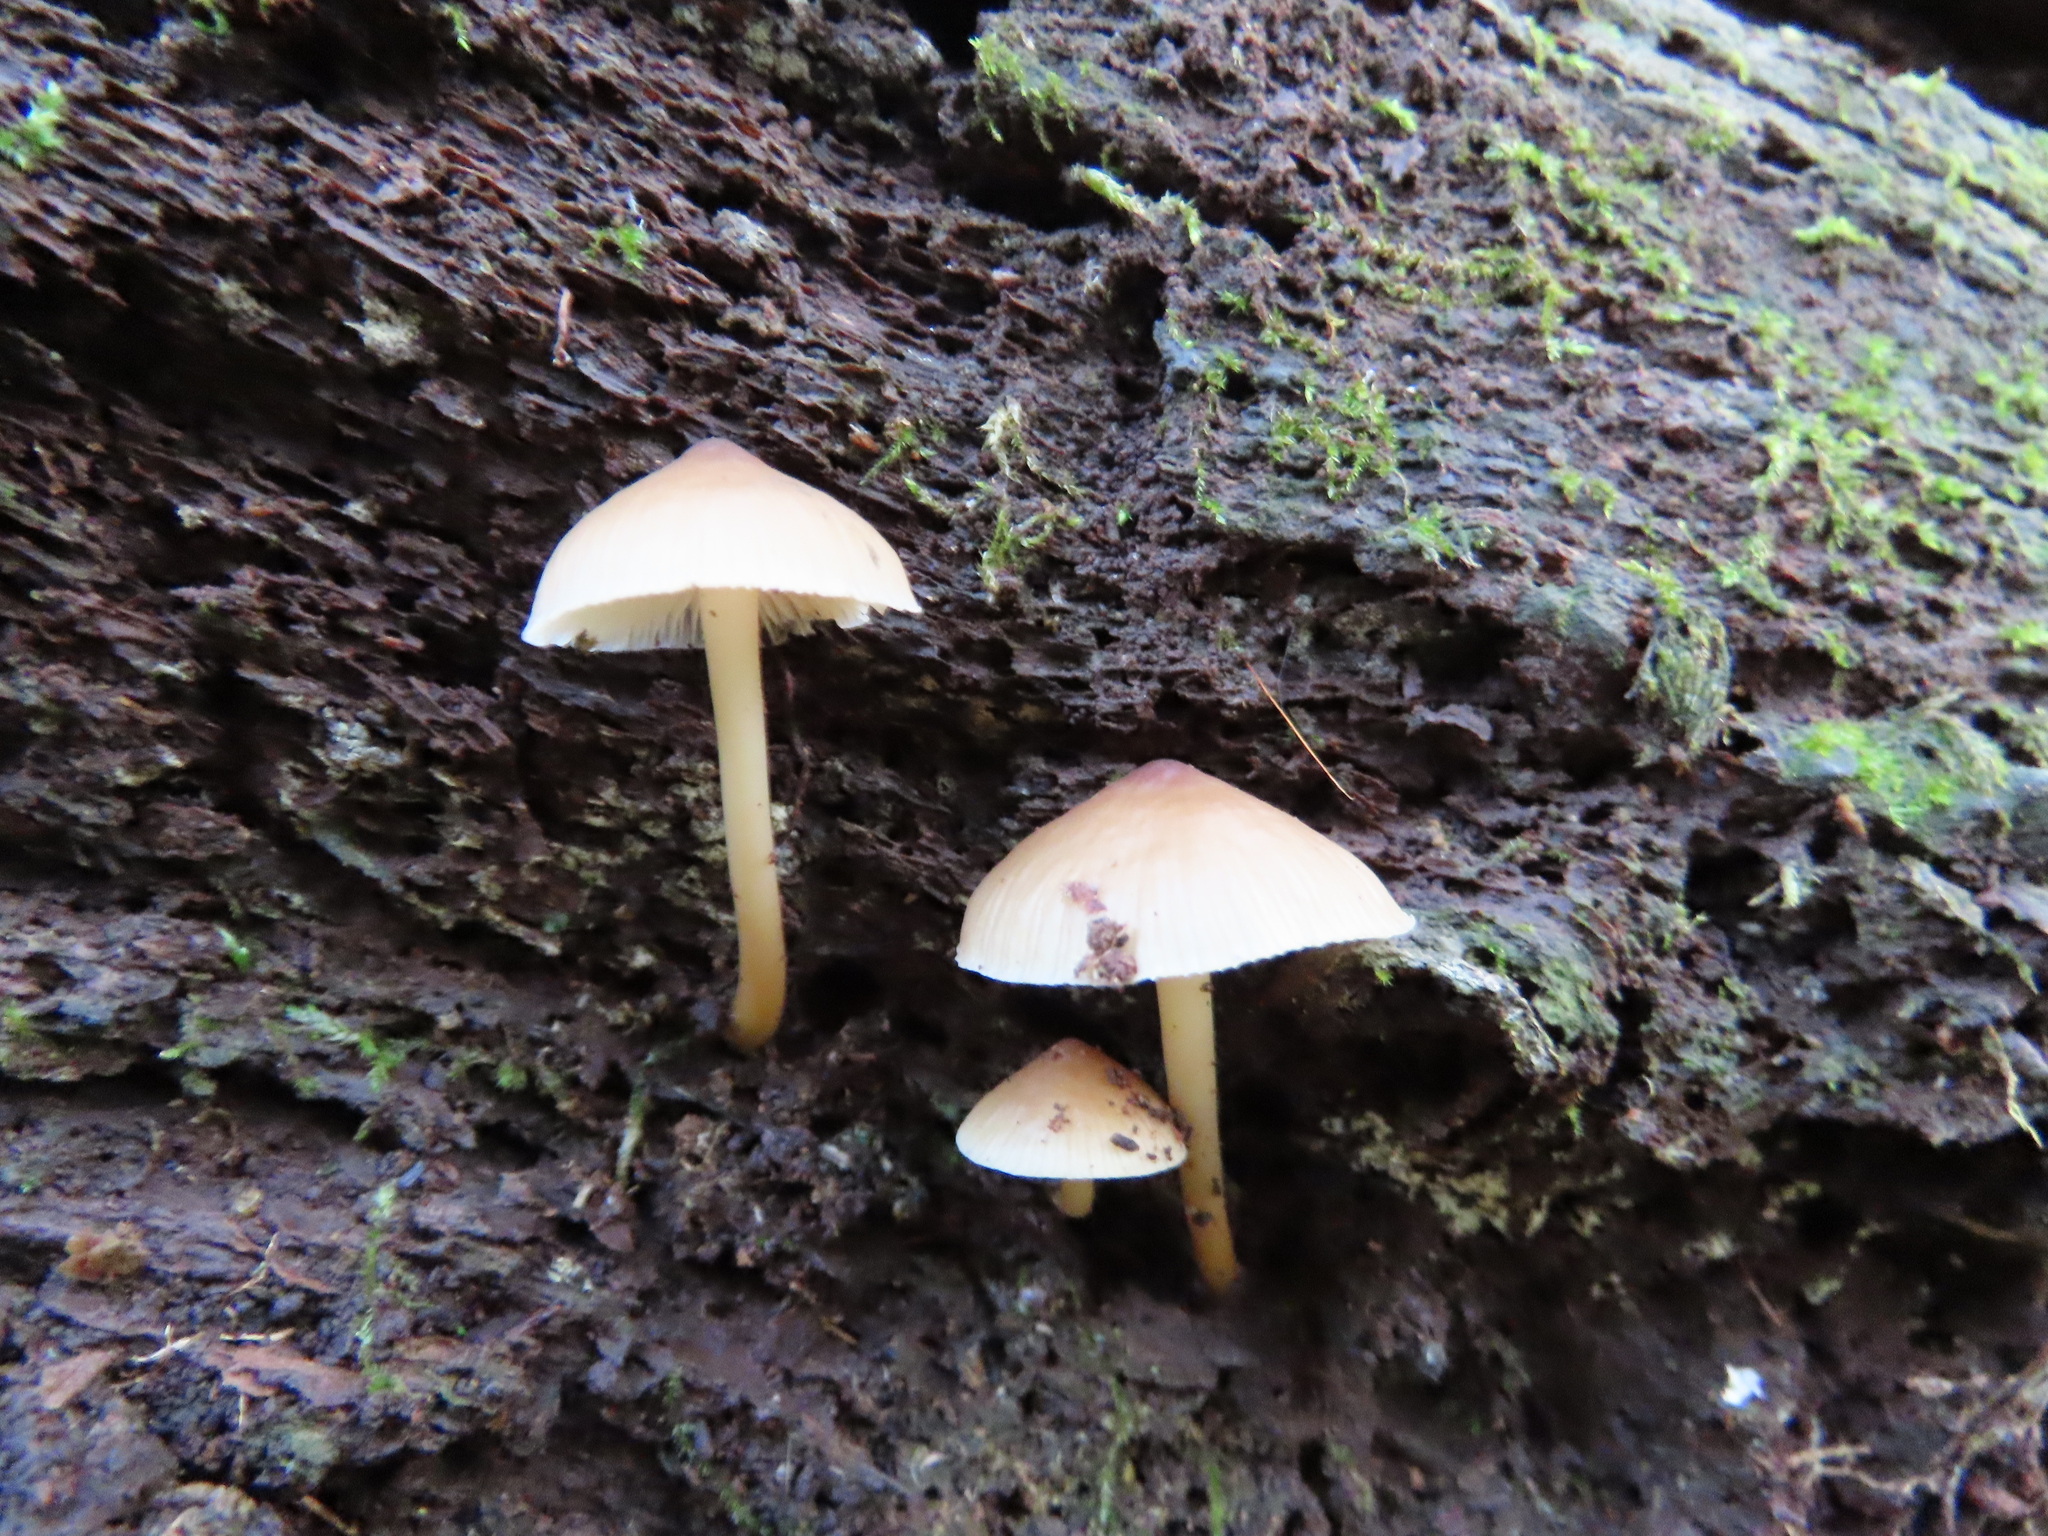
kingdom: Fungi
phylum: Basidiomycota
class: Agaricomycetes
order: Agaricales
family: Mycenaceae
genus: Mycena
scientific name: Mycena inclinata
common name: Clustered bonnet
